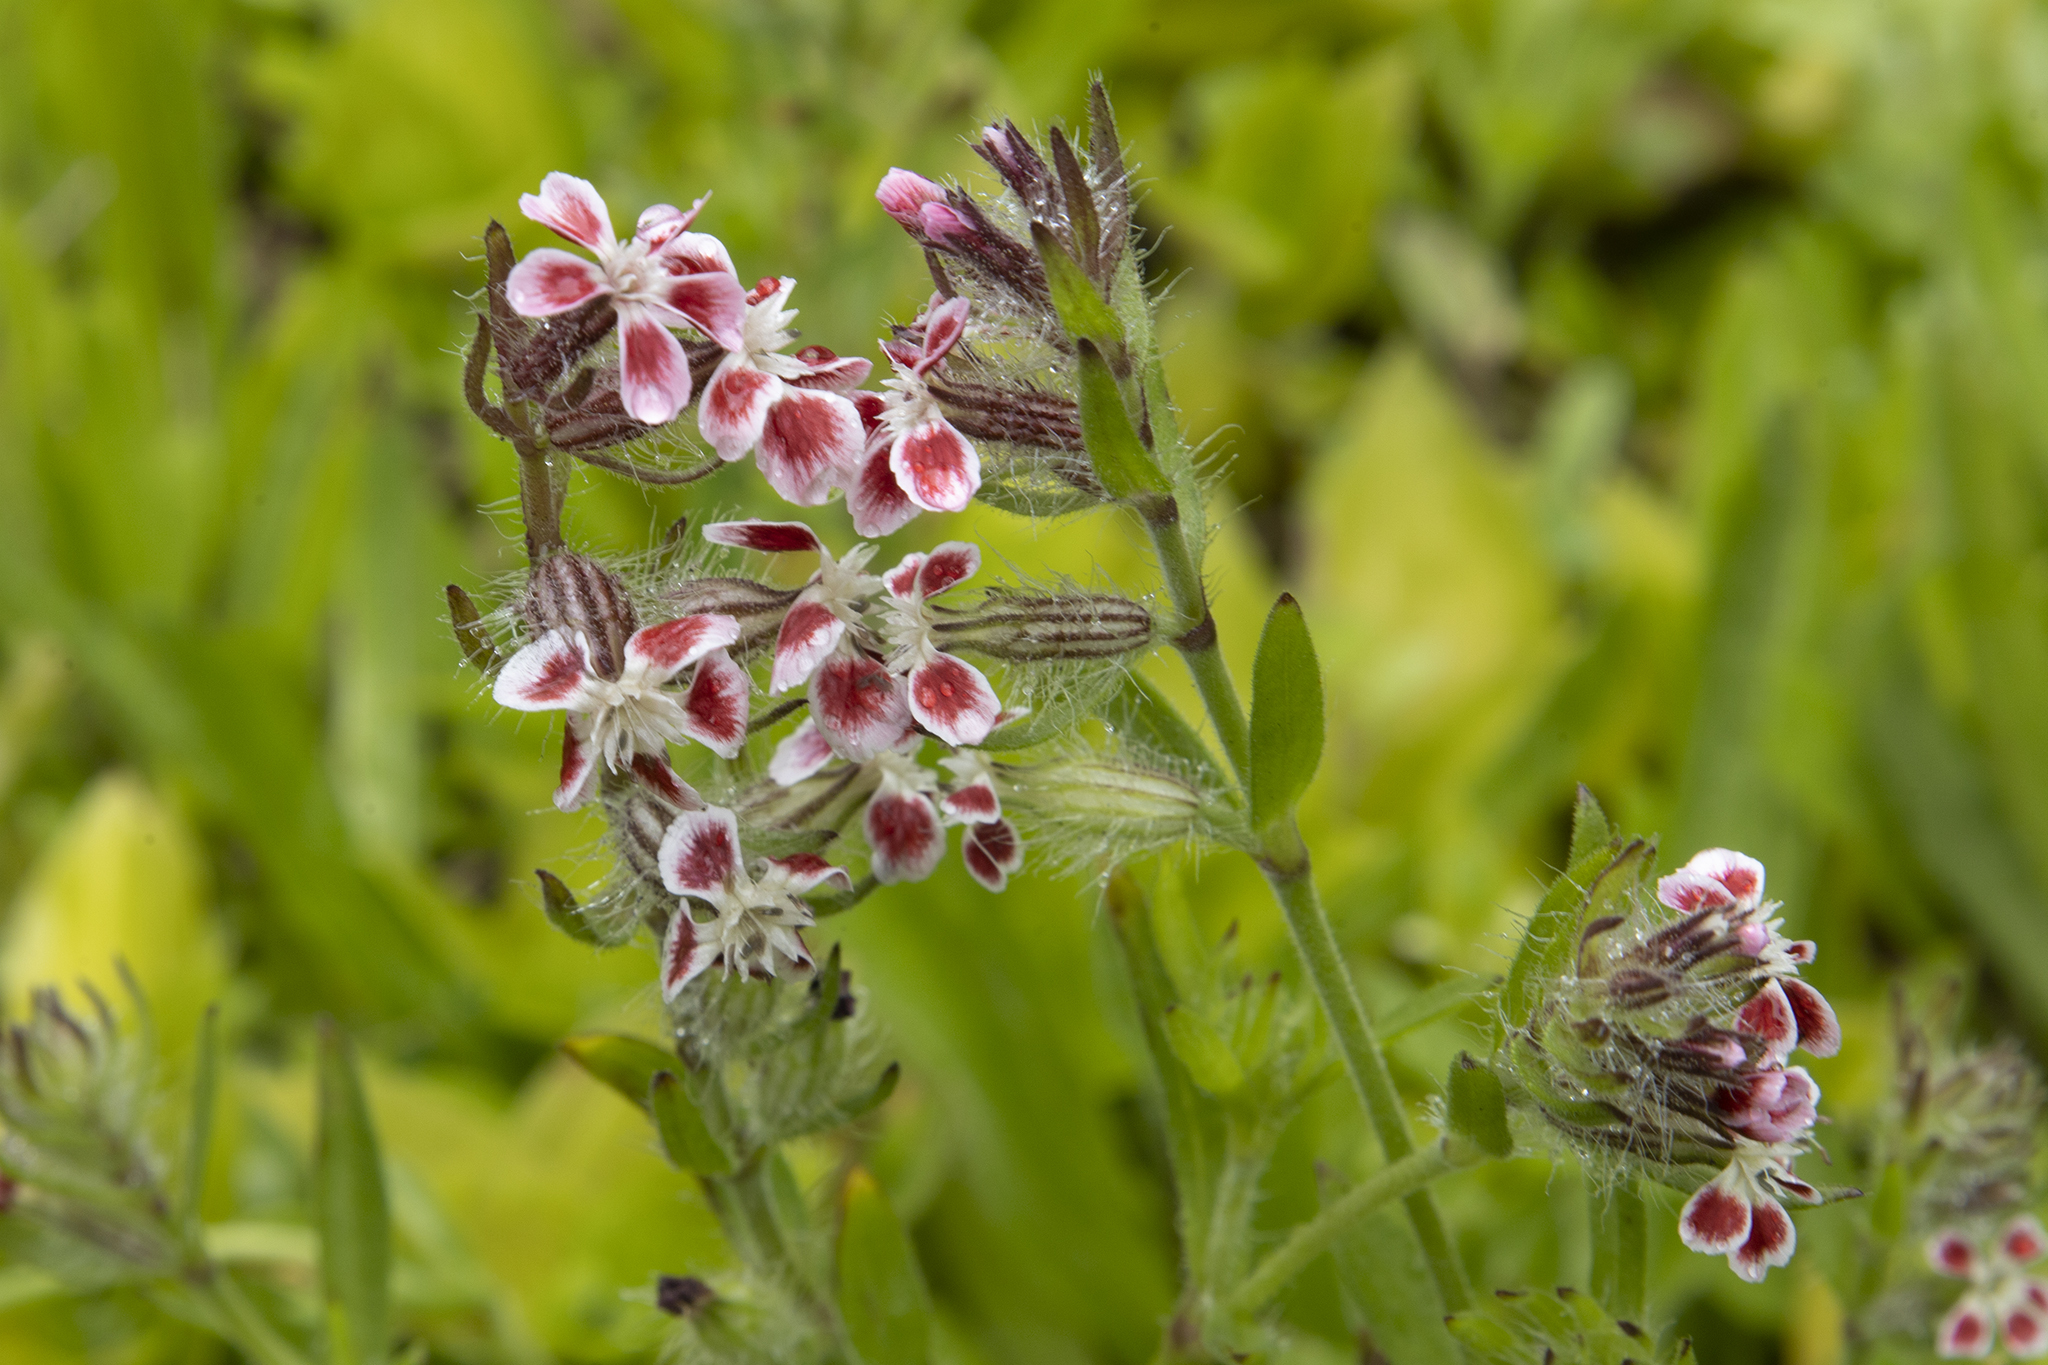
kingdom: Plantae
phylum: Tracheophyta
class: Magnoliopsida
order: Caryophyllales
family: Caryophyllaceae
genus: Silene
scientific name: Silene gallica
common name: Small-flowered catchfly
